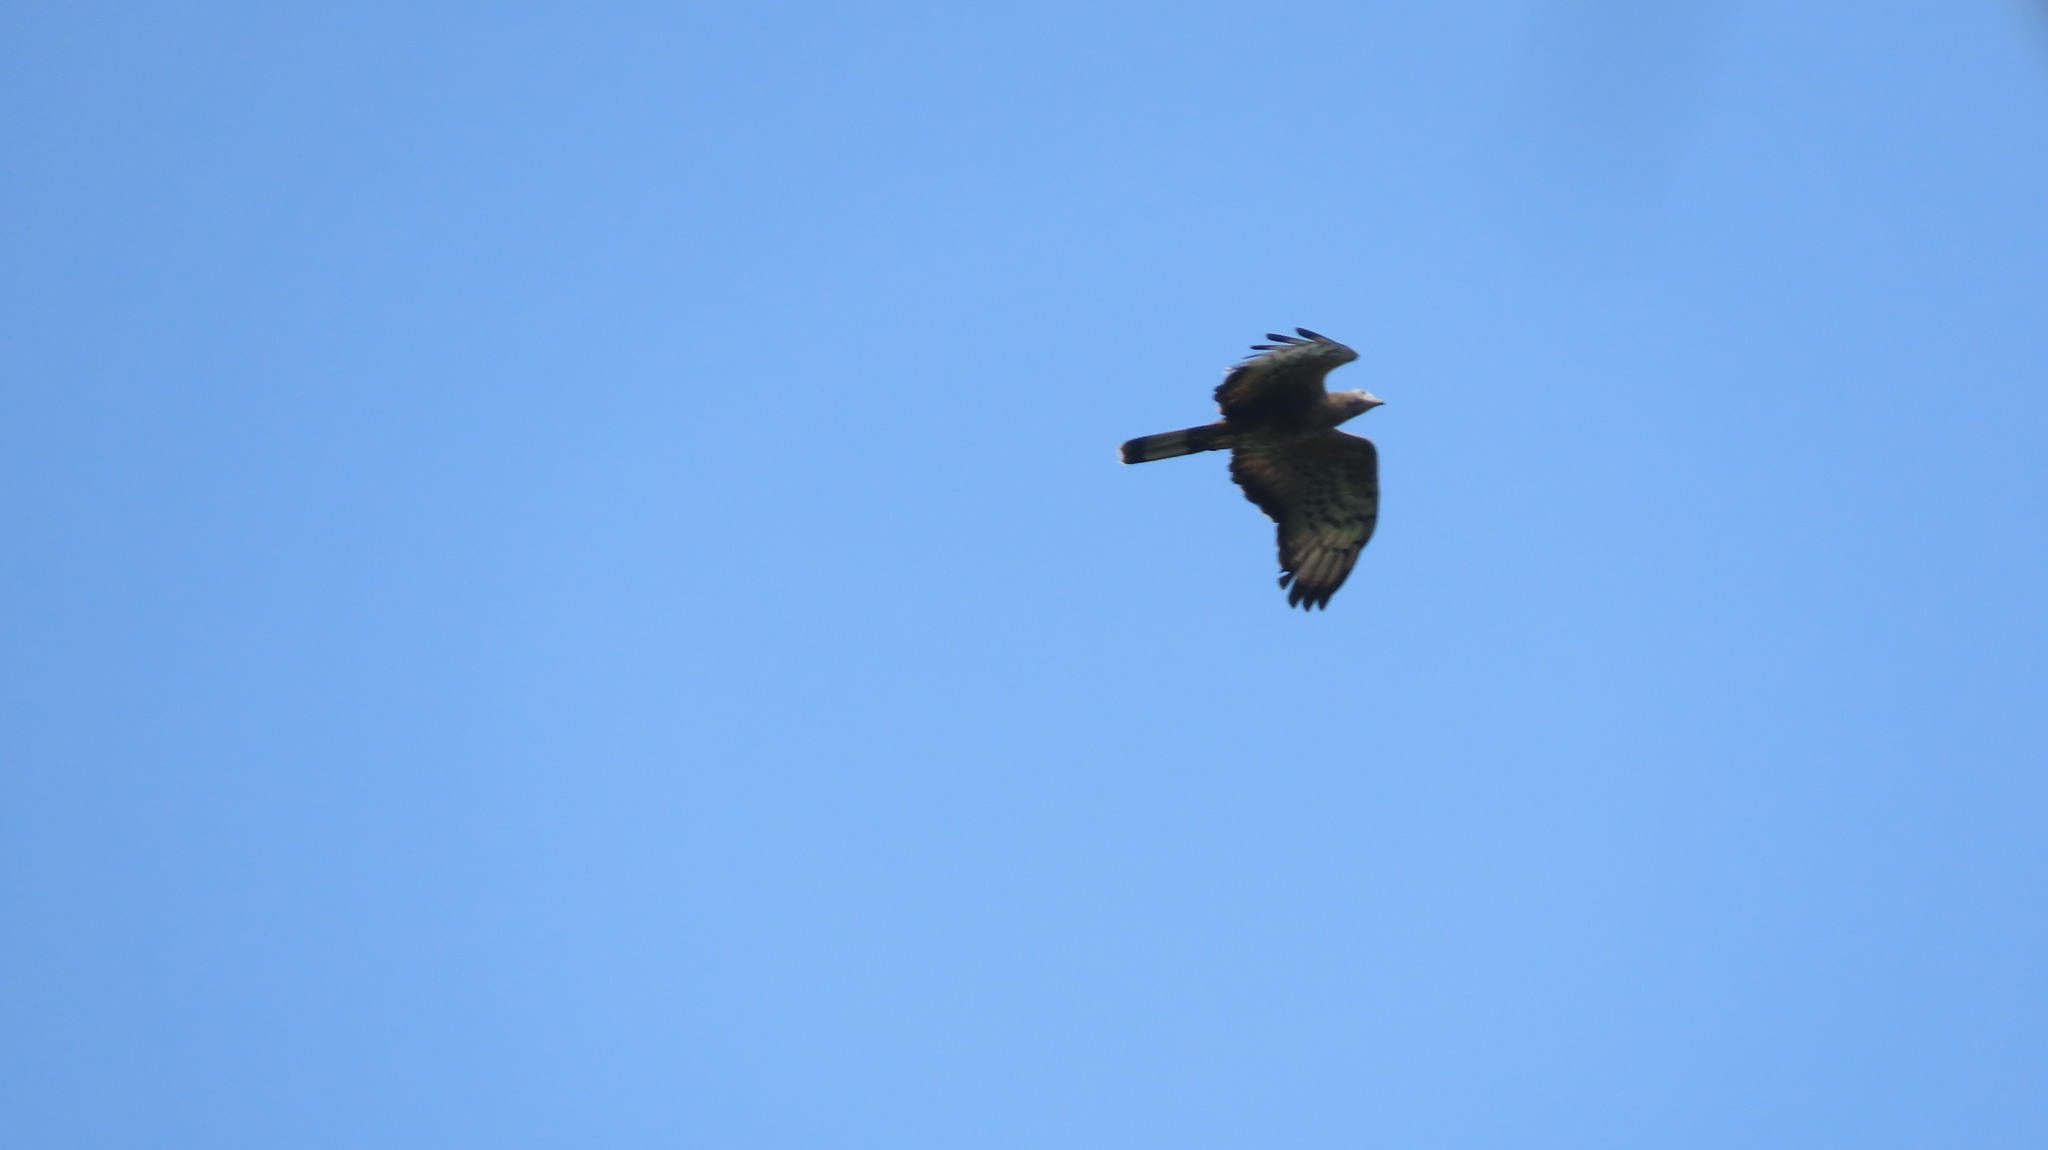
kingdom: Animalia
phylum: Chordata
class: Aves
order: Accipitriformes
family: Accipitridae
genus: Pernis
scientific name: Pernis ptilorhynchus
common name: Crested honey buzzard
